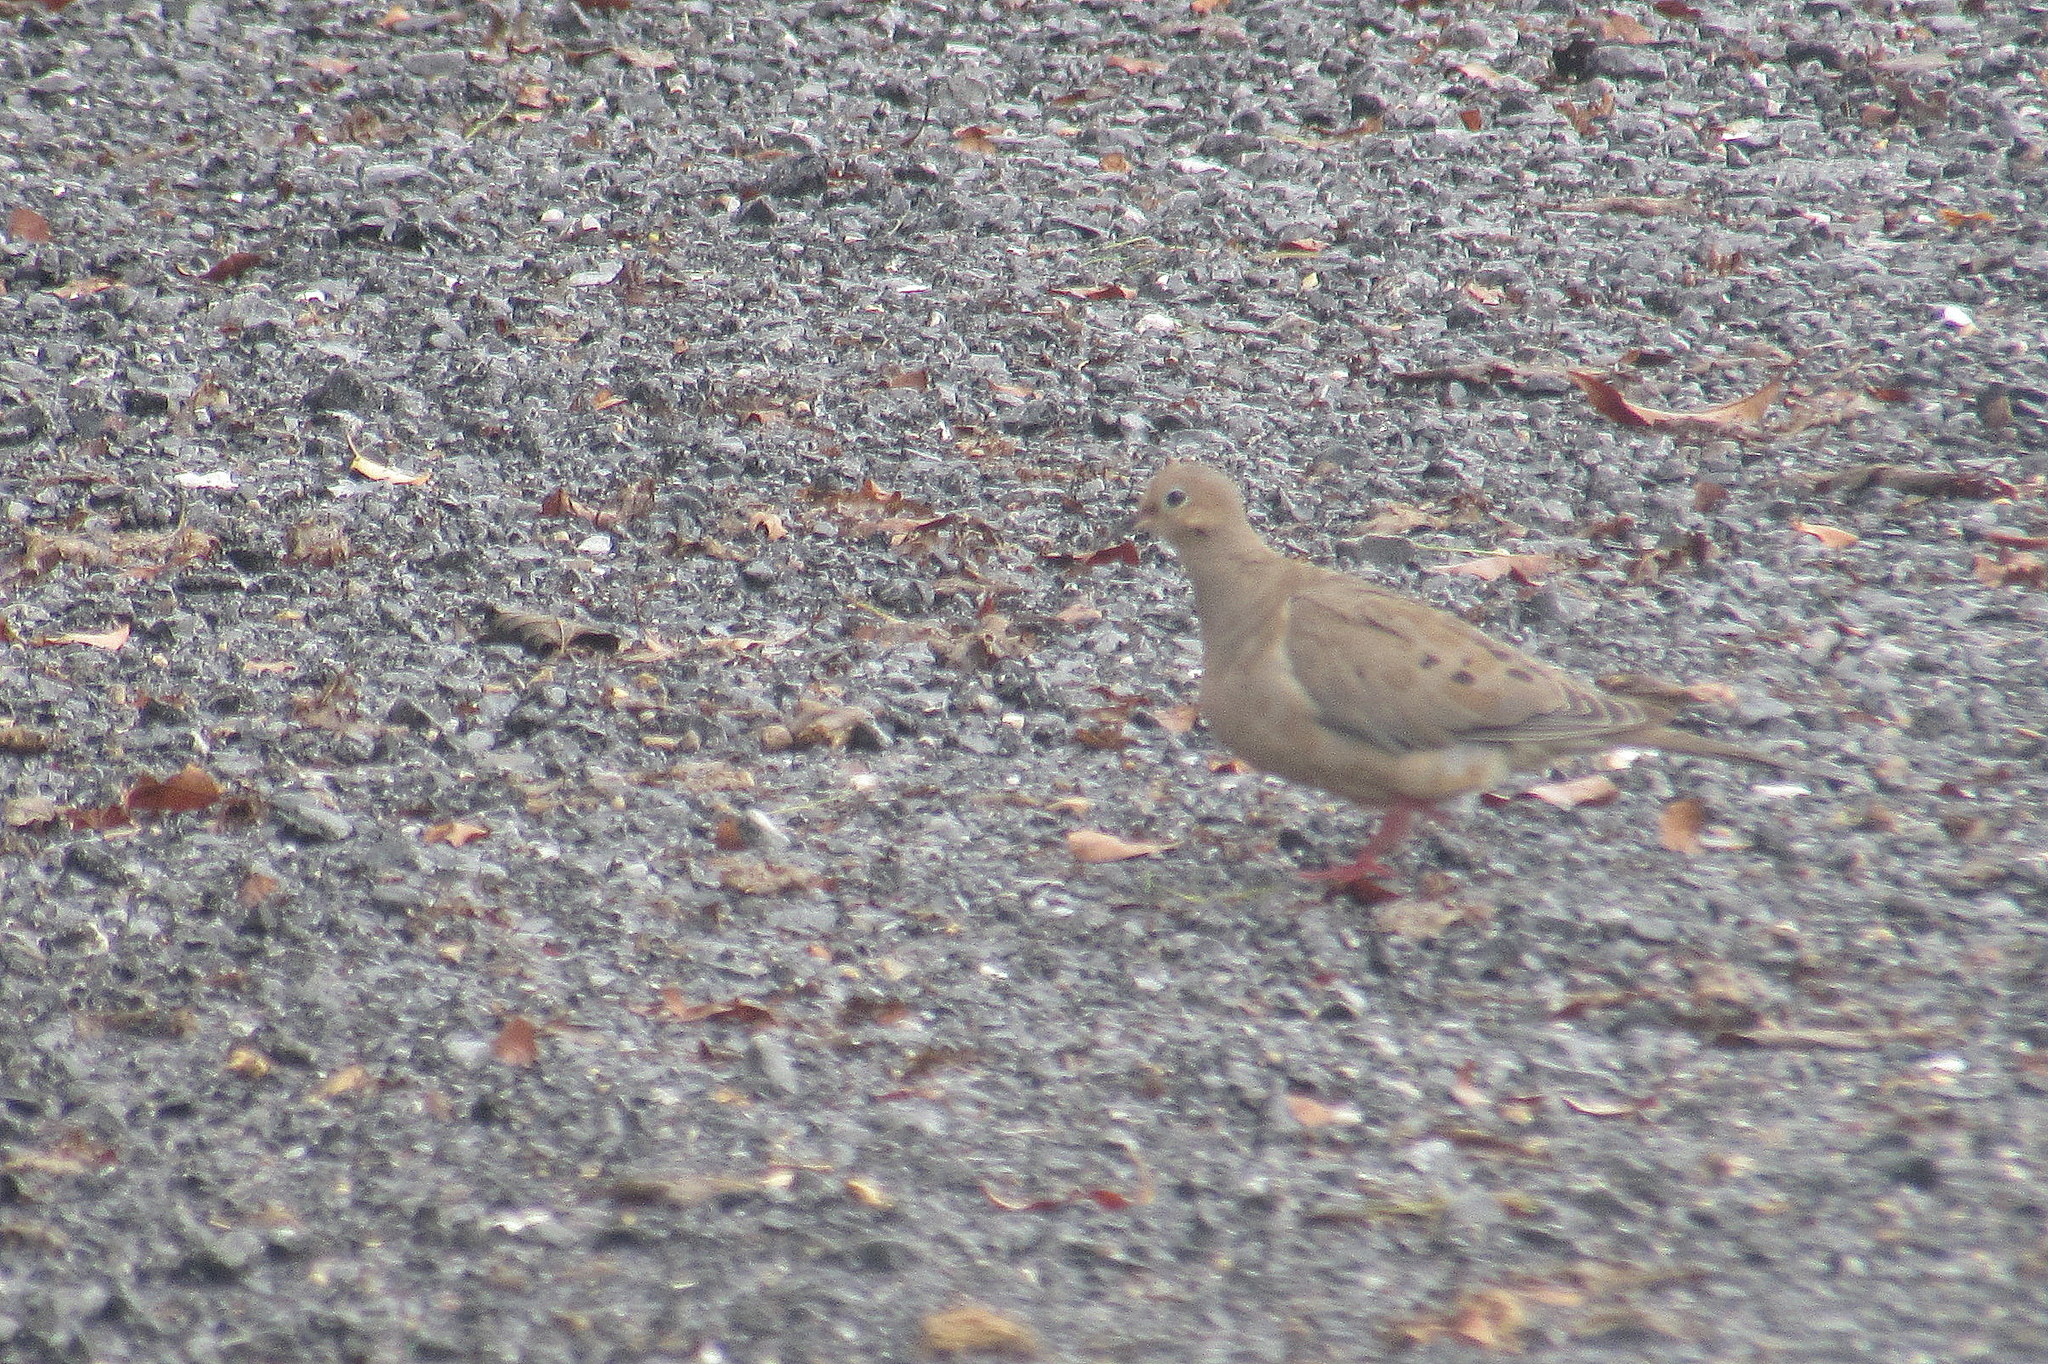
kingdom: Animalia
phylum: Chordata
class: Aves
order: Columbiformes
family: Columbidae
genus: Zenaida
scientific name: Zenaida macroura
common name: Mourning dove
